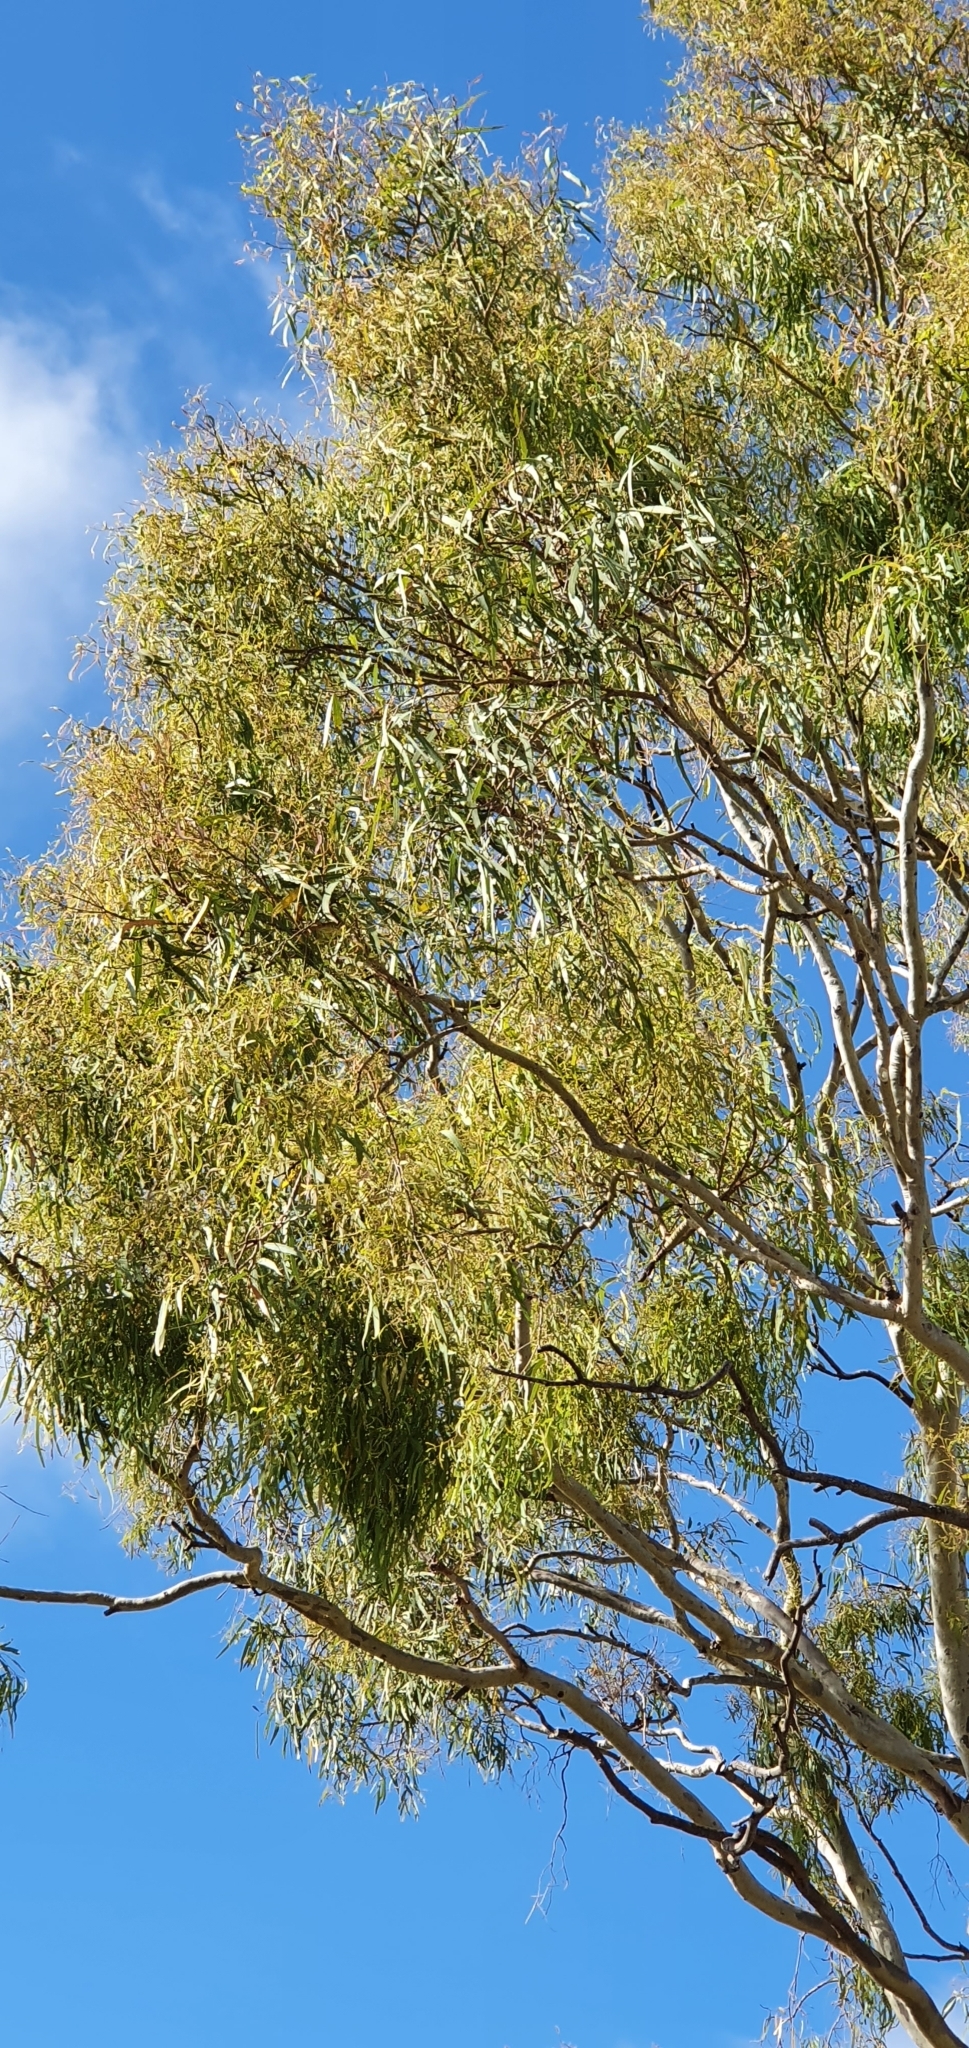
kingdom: Plantae
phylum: Tracheophyta
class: Magnoliopsida
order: Myrtales
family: Myrtaceae
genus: Corymbia
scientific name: Corymbia tessellaris
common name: Carbeen
